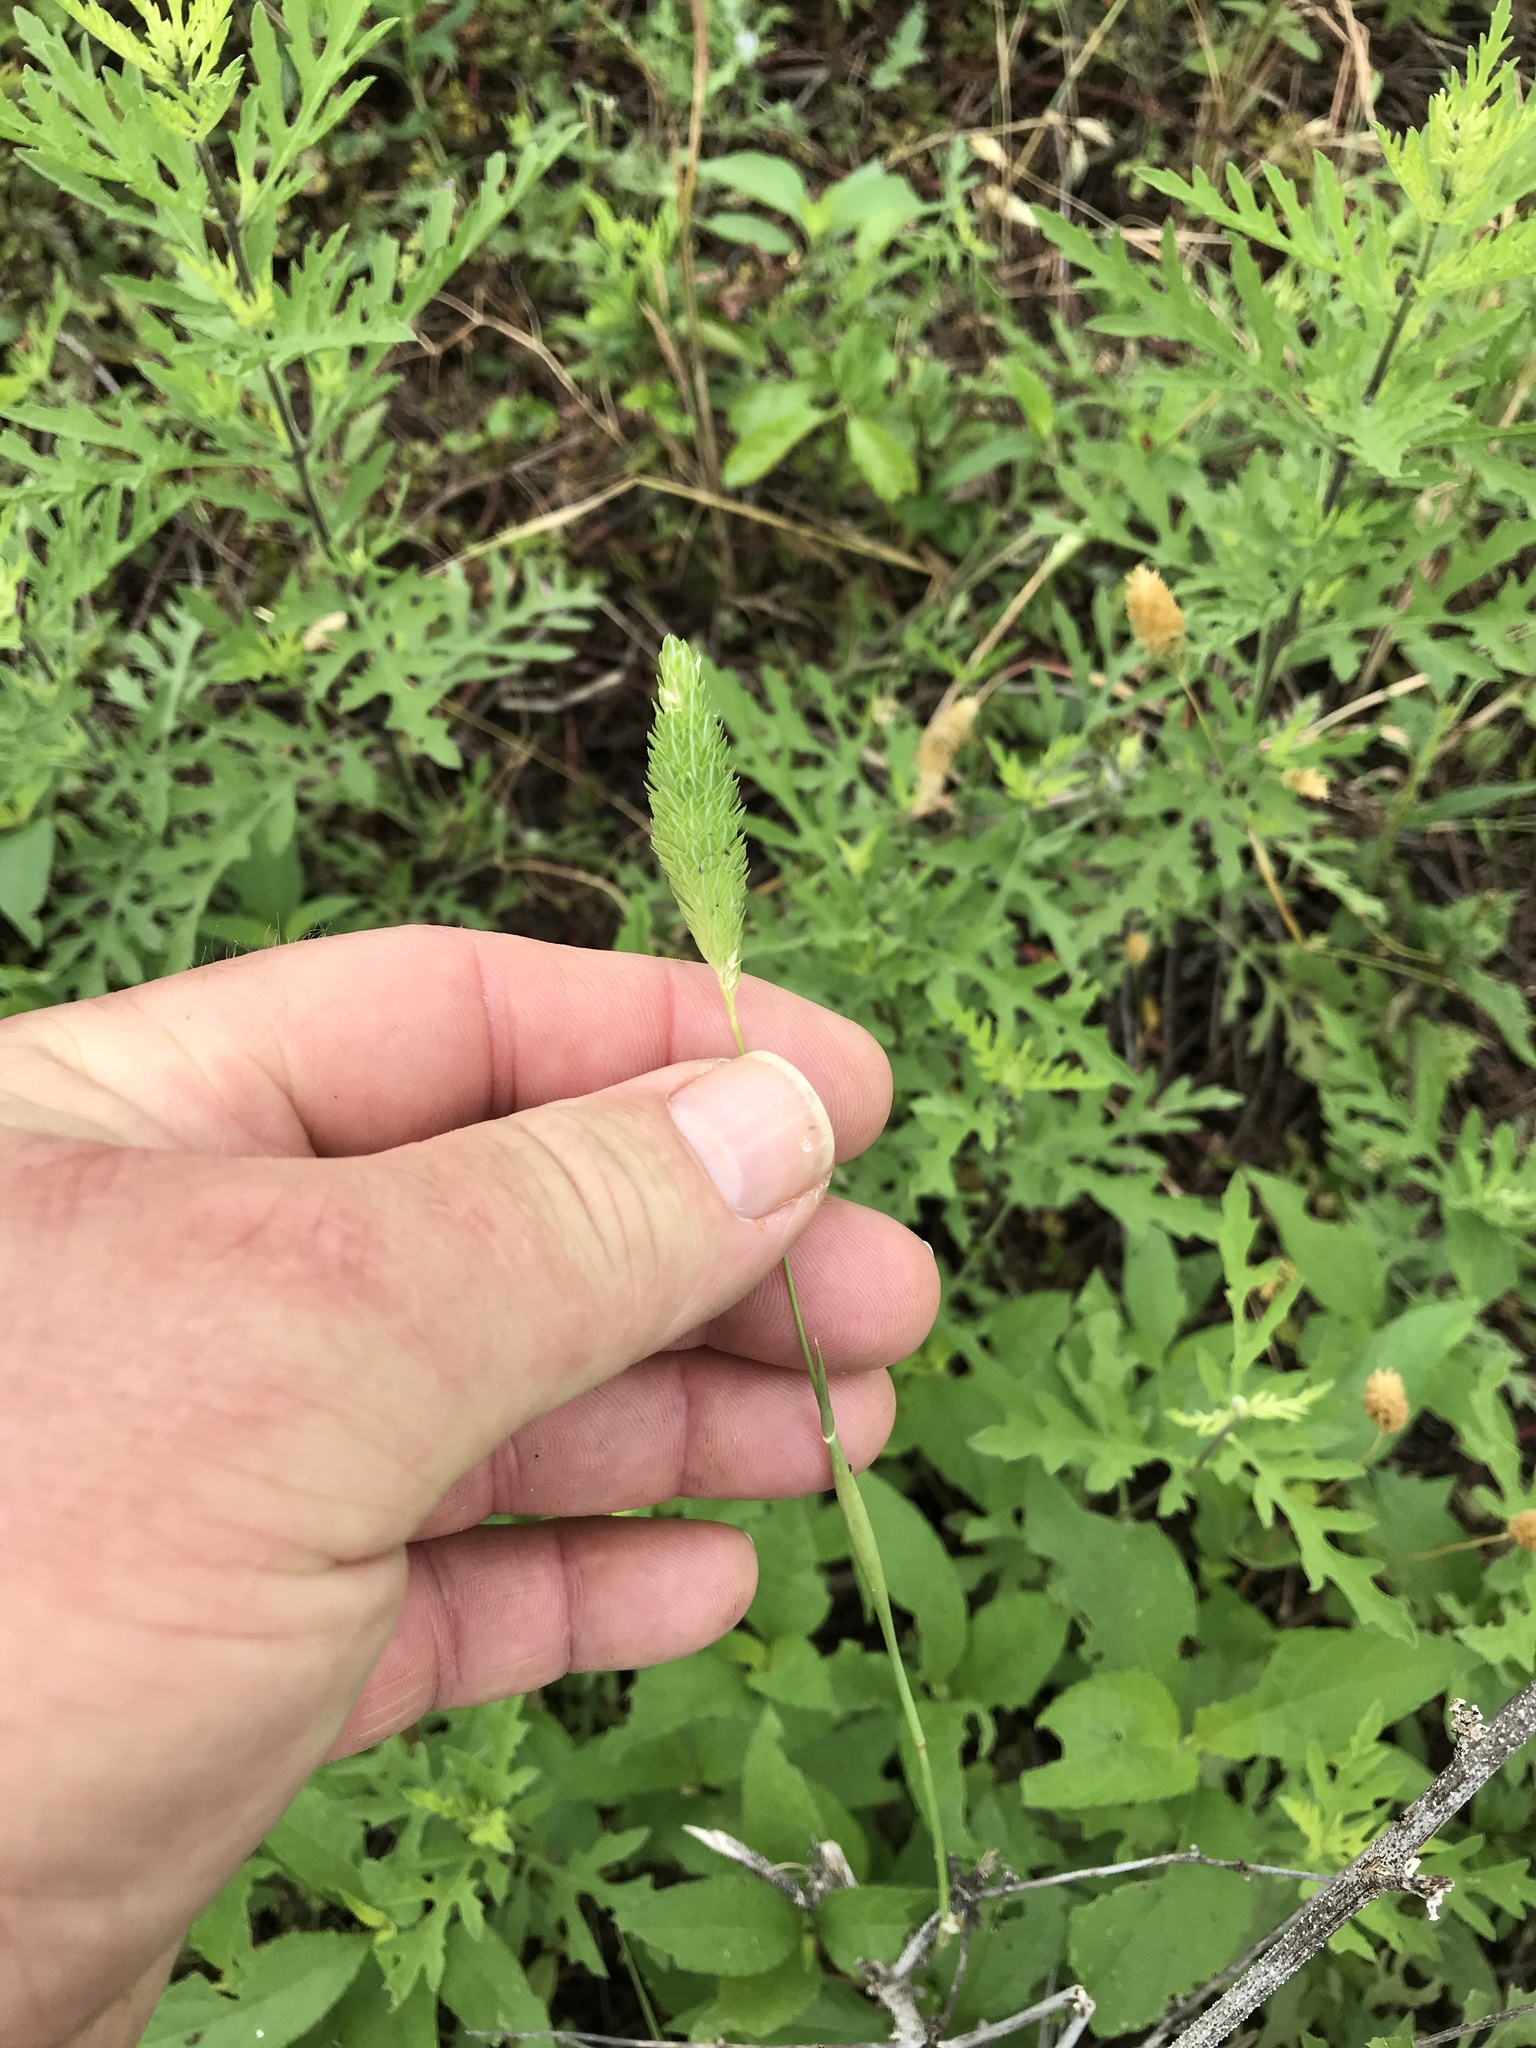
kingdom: Plantae
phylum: Tracheophyta
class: Liliopsida
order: Poales
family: Poaceae
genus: Phalaris
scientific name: Phalaris caroliniana
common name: May grass
